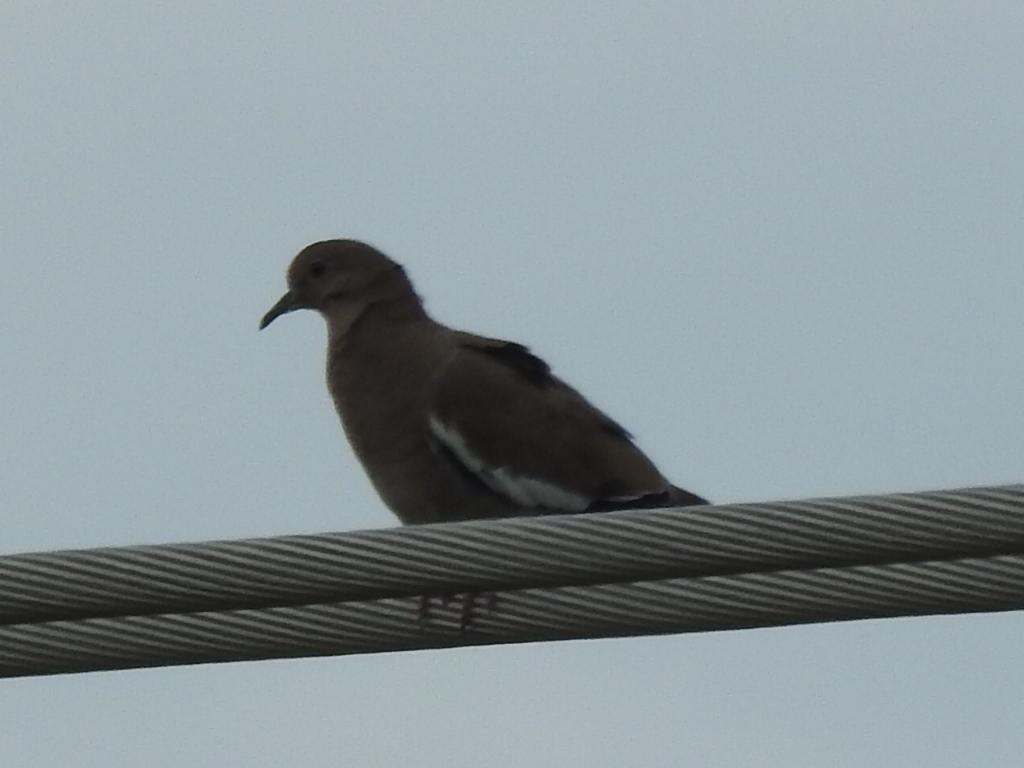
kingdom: Animalia
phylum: Chordata
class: Aves
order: Columbiformes
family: Columbidae
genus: Zenaida
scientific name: Zenaida asiatica
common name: White-winged dove
